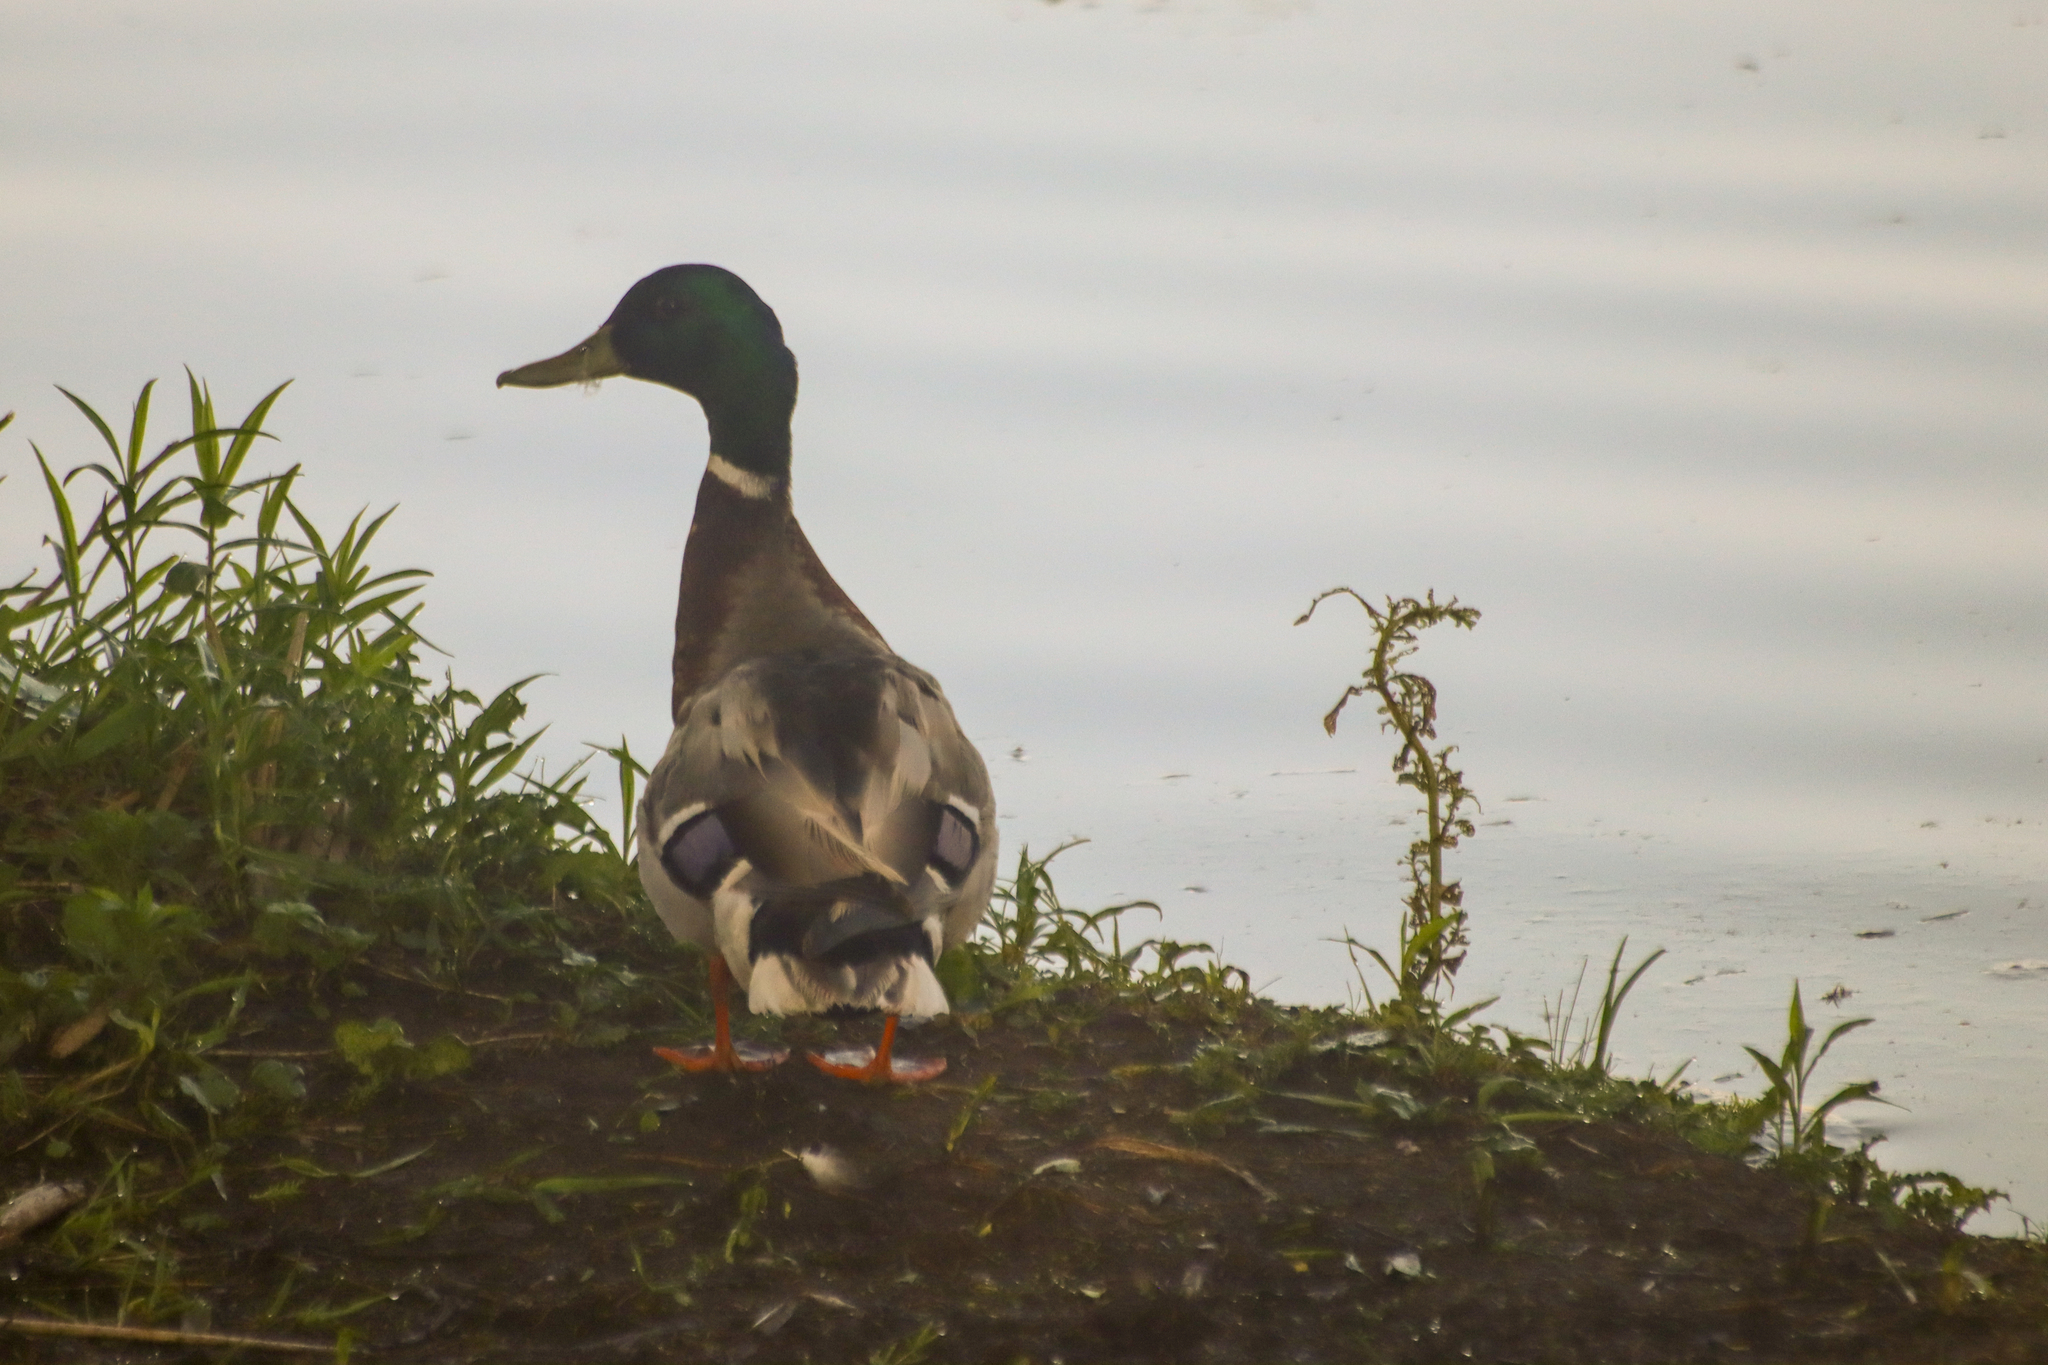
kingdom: Animalia
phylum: Chordata
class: Aves
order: Anseriformes
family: Anatidae
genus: Anas
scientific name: Anas platyrhynchos
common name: Mallard
